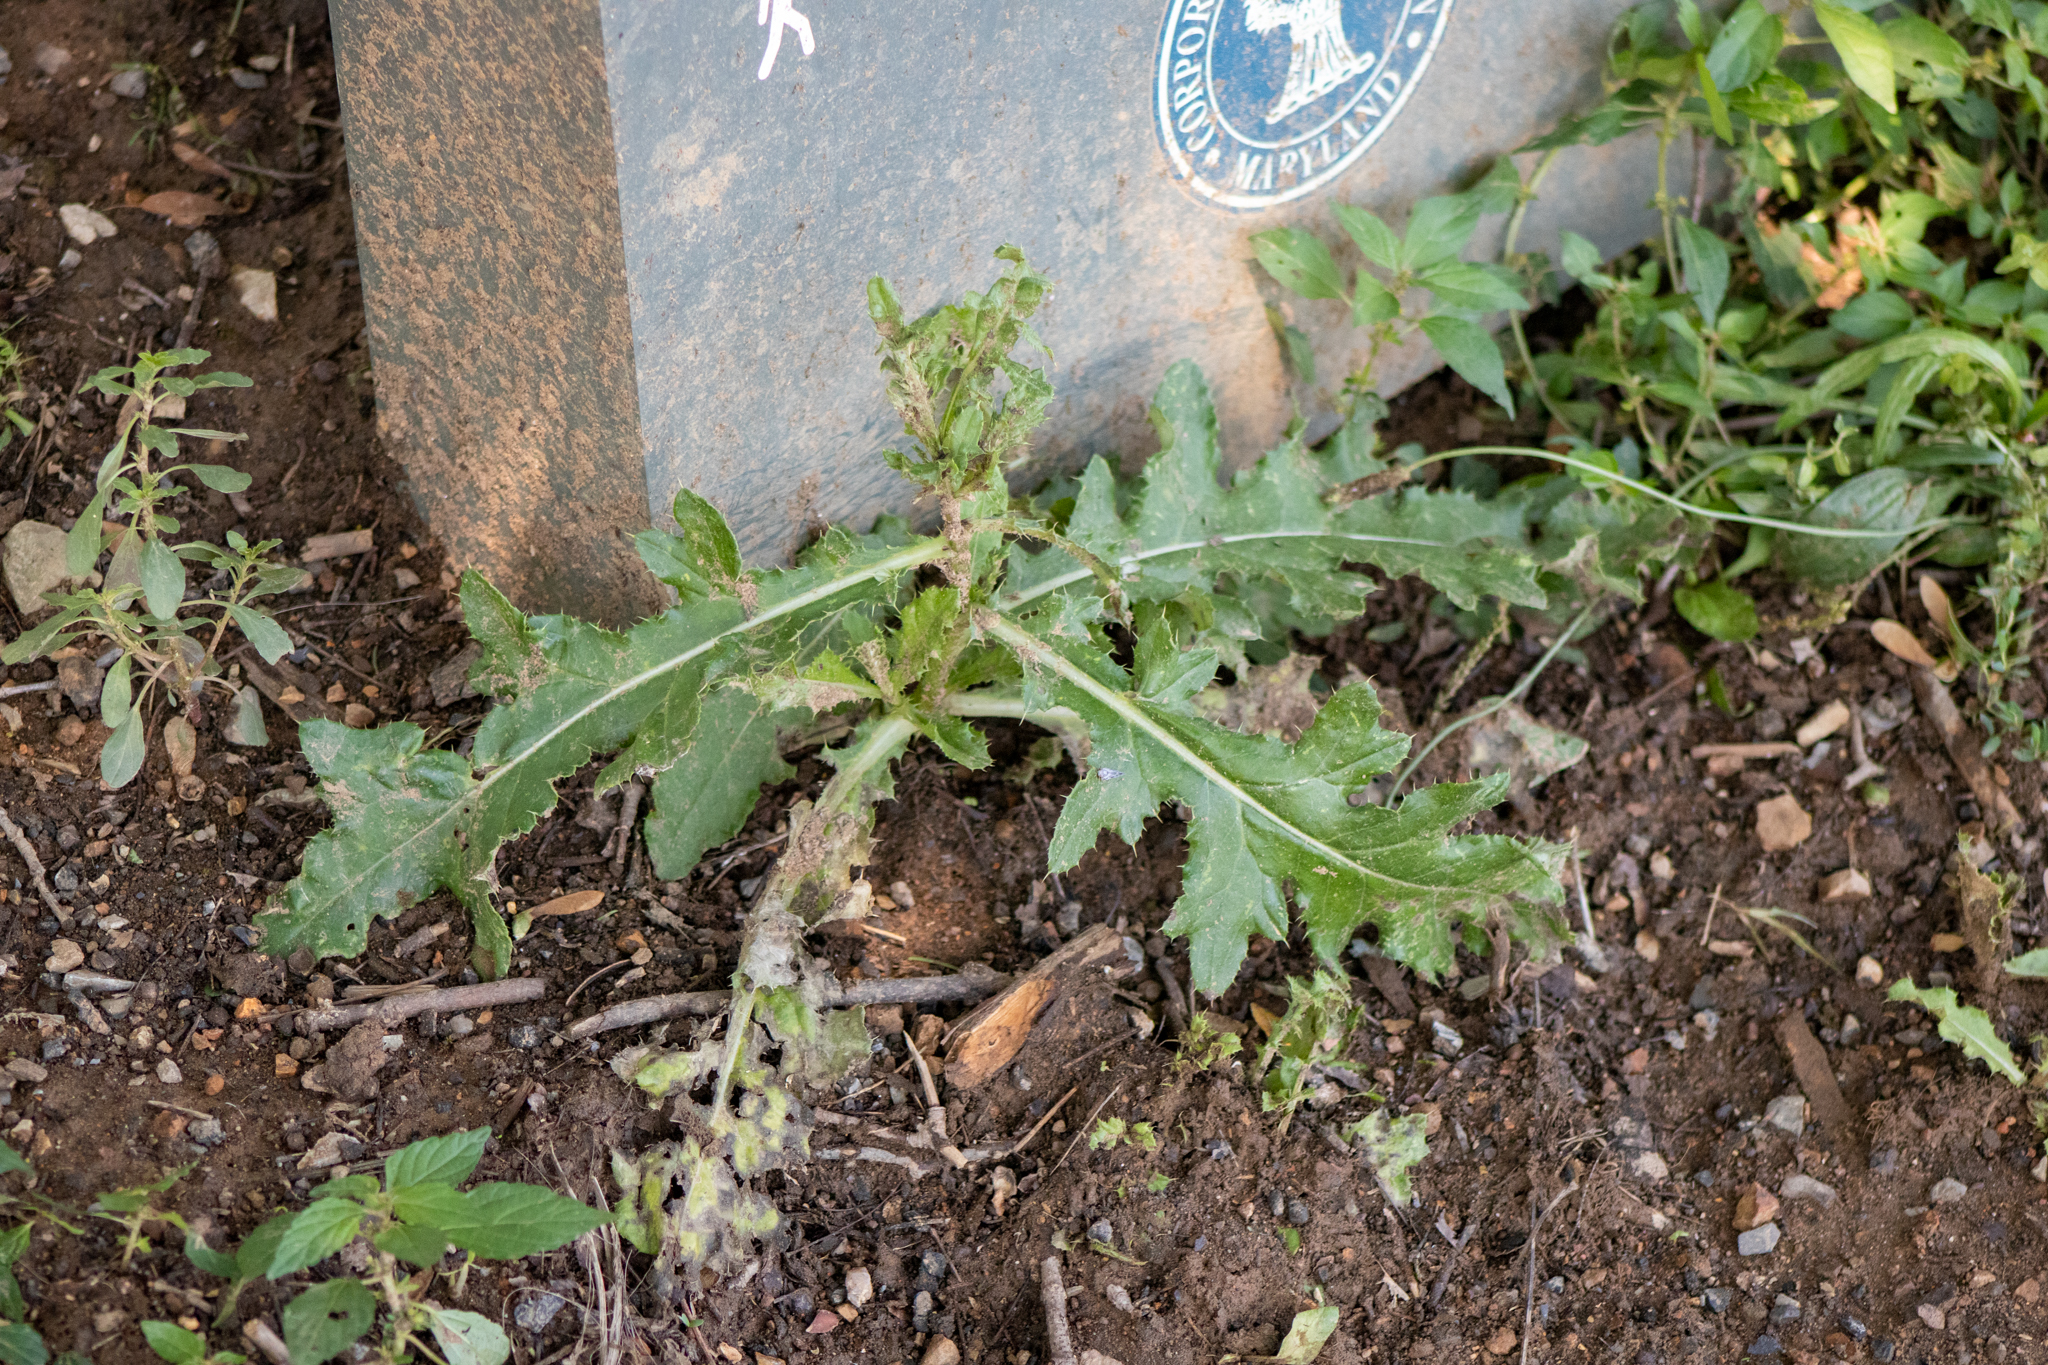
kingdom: Plantae
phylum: Tracheophyta
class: Magnoliopsida
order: Asterales
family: Asteraceae
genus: Sonchus
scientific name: Sonchus asper
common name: Prickly sow-thistle
